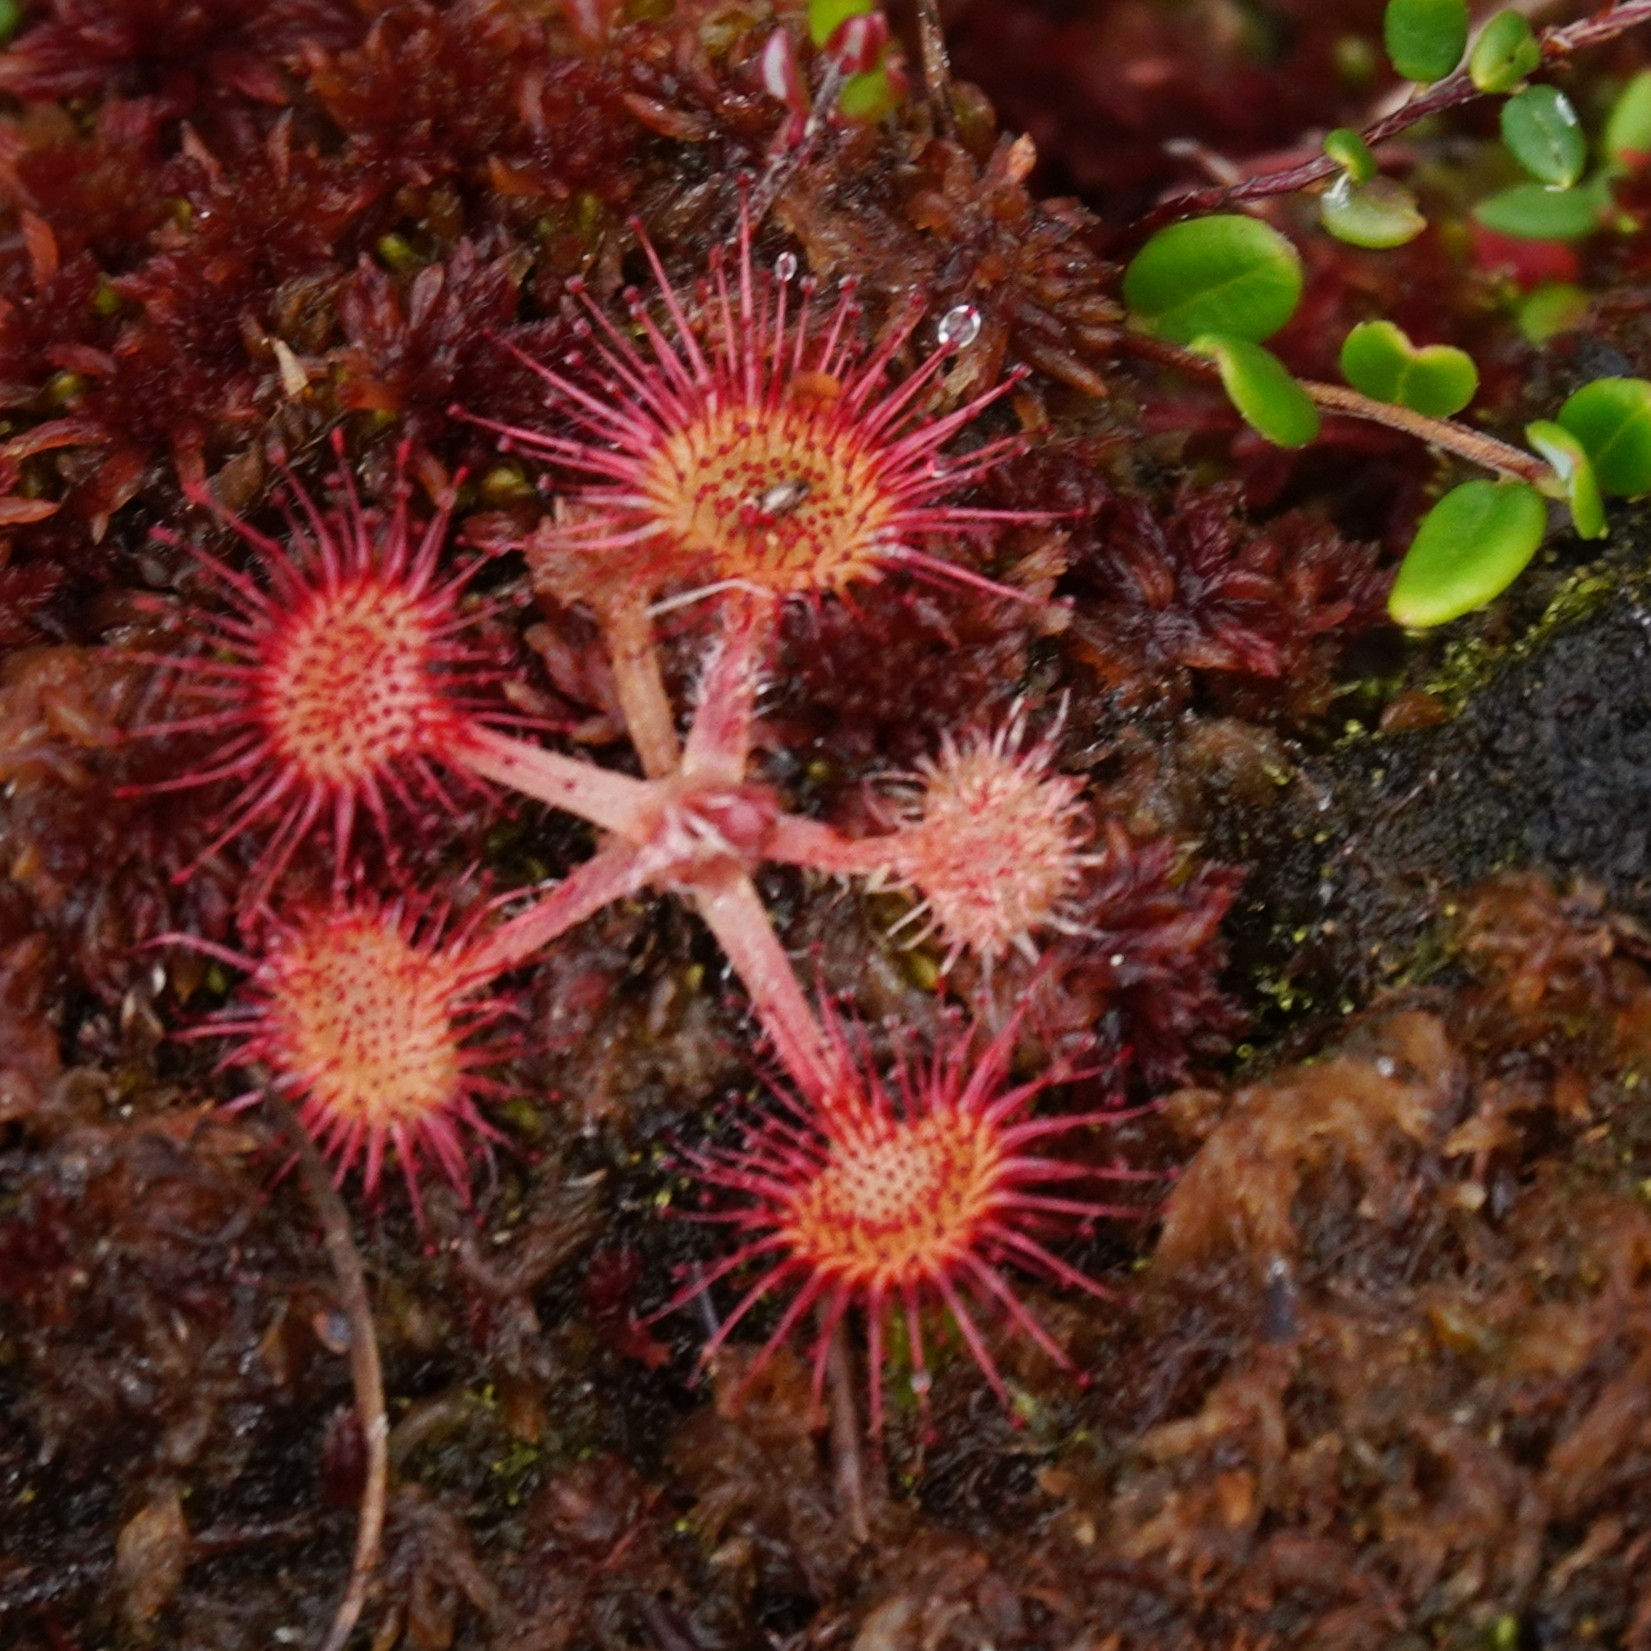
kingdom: Plantae
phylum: Tracheophyta
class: Magnoliopsida
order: Caryophyllales
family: Droseraceae
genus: Drosera
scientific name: Drosera rotundifolia
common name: Round-leaved sundew
